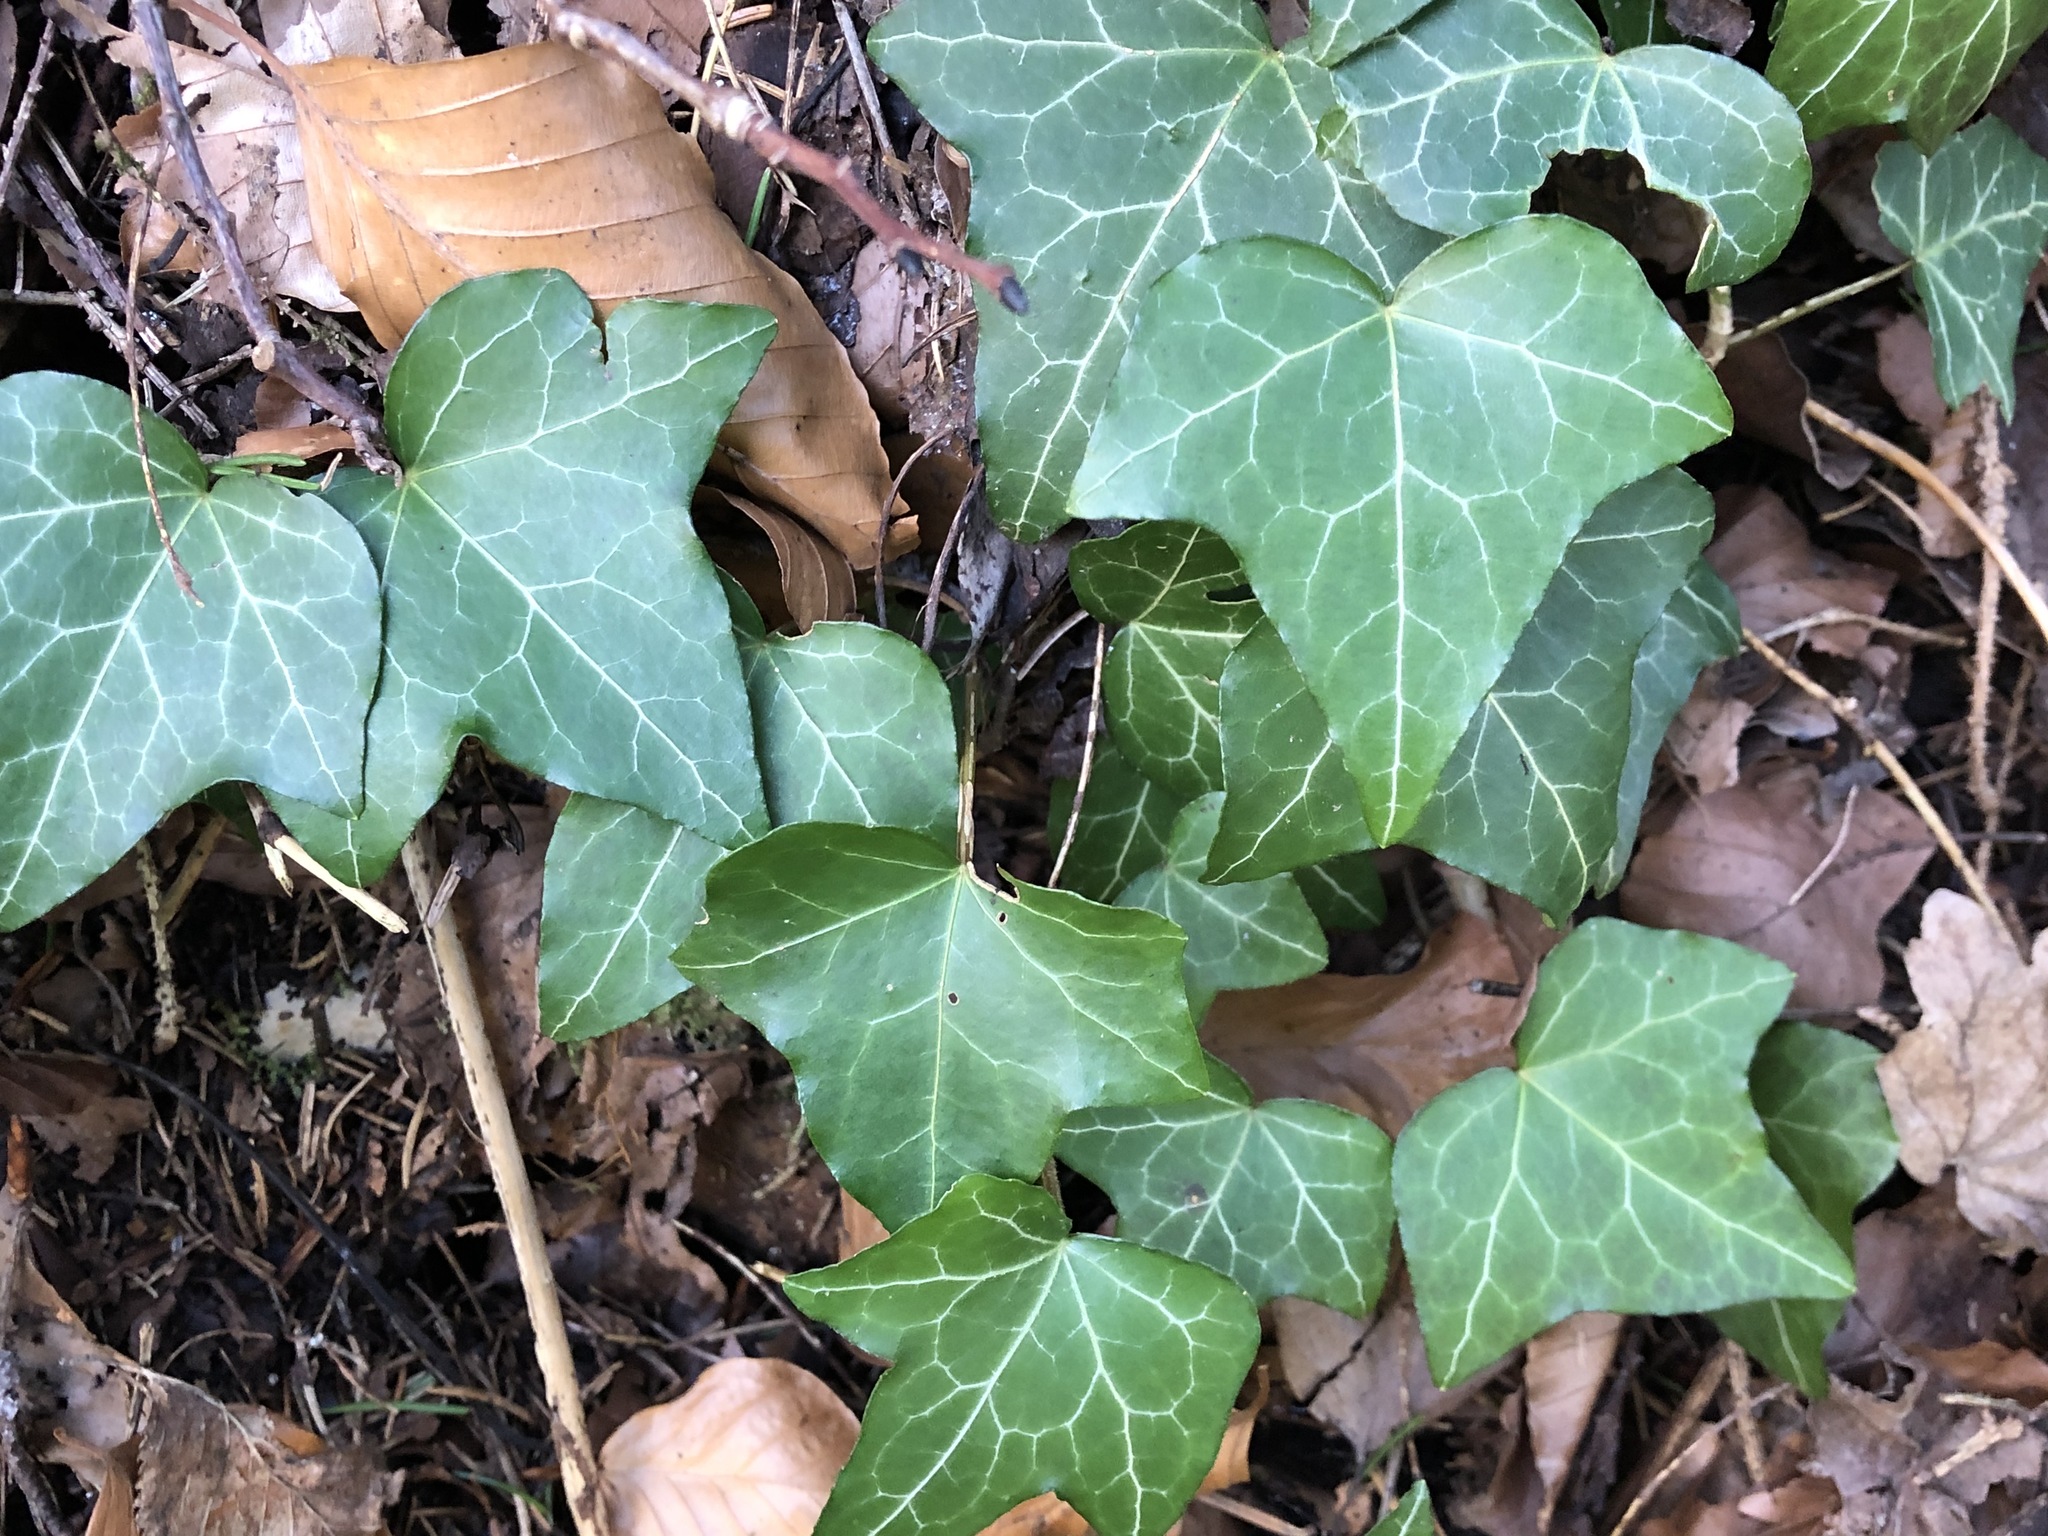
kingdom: Plantae
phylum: Tracheophyta
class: Magnoliopsida
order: Apiales
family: Araliaceae
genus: Hedera
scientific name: Hedera helix
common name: Ivy
